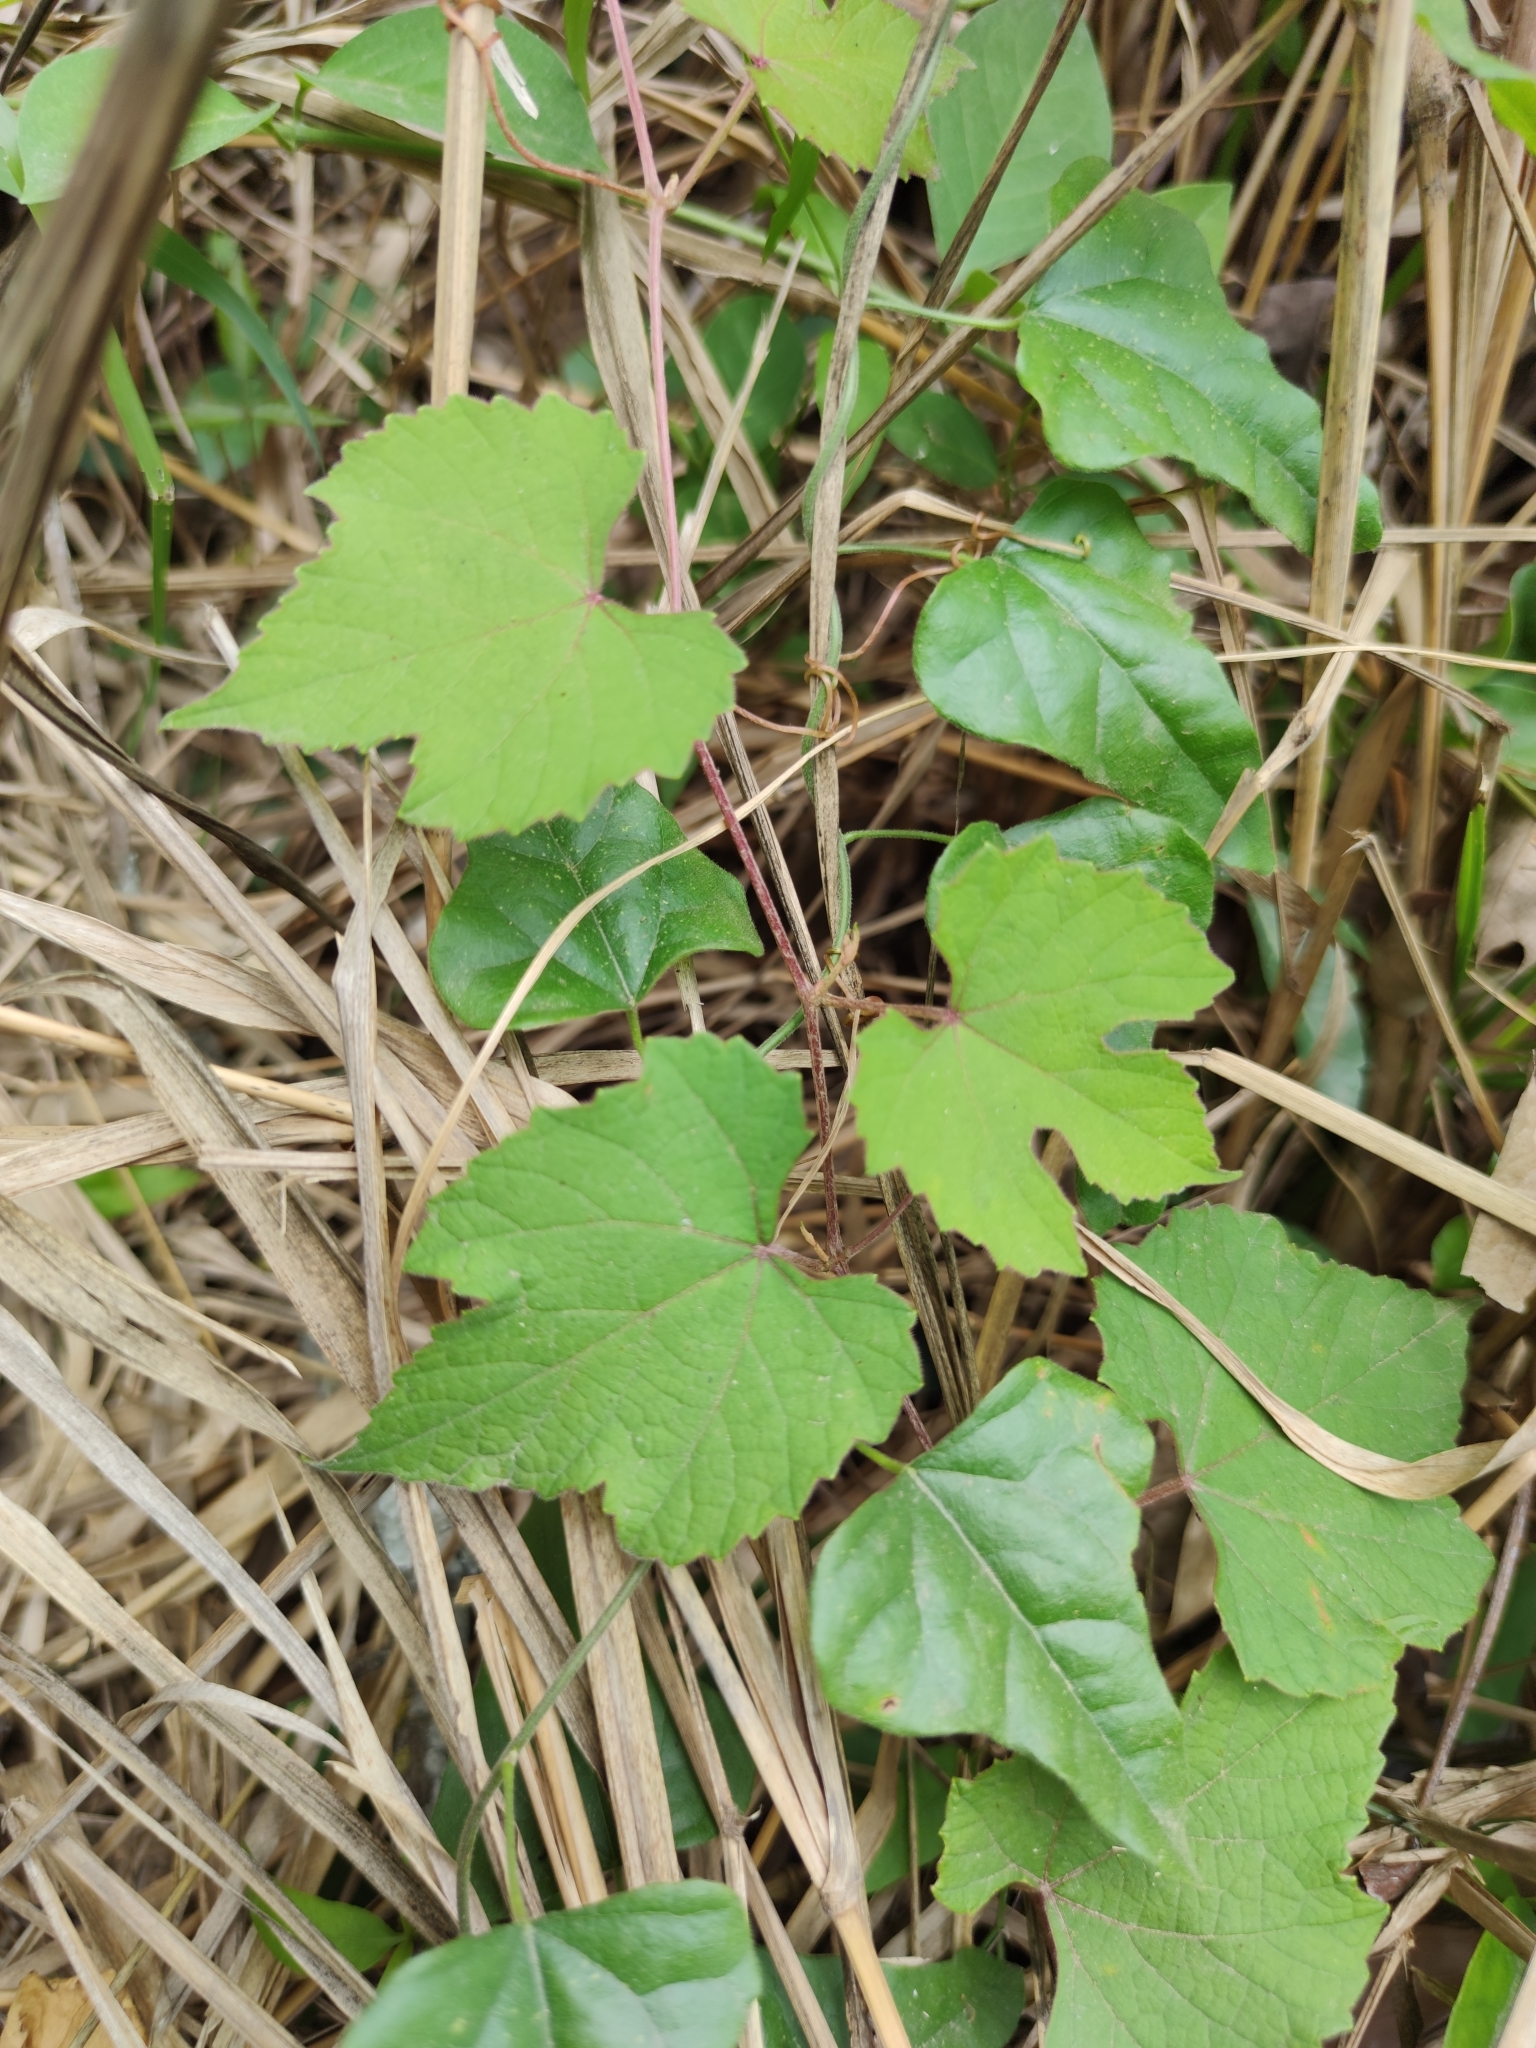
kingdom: Plantae
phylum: Tracheophyta
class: Magnoliopsida
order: Vitales
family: Vitaceae
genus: Vitis
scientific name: Vitis cinerea
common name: Ashy grape
